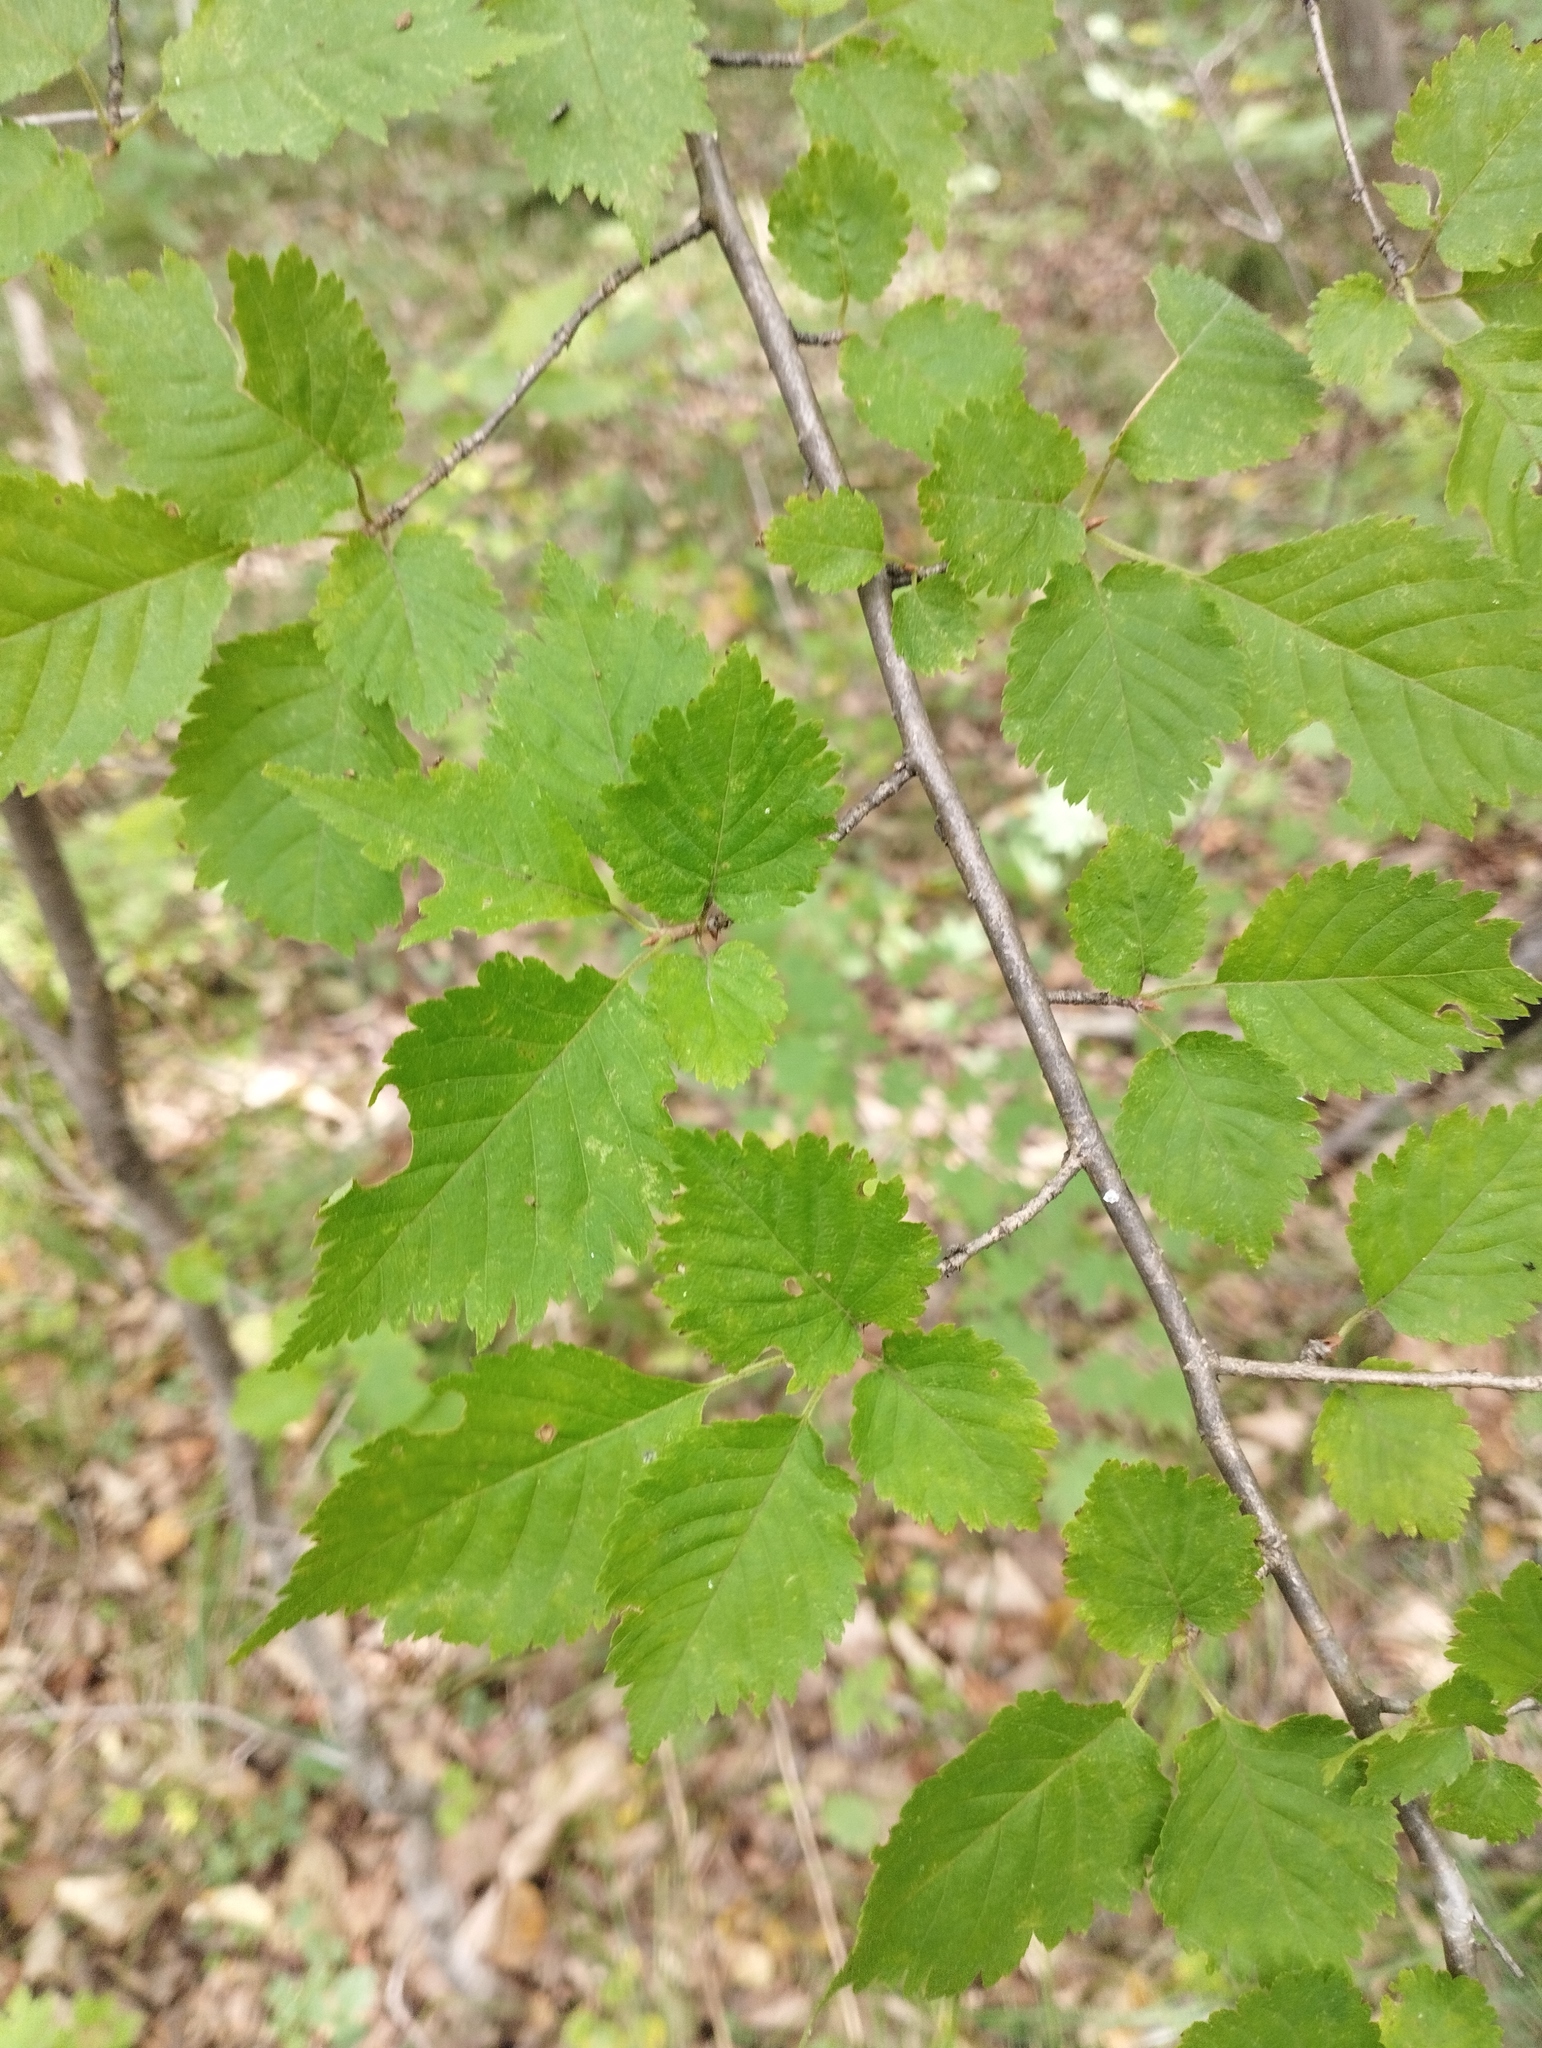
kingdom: Plantae
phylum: Tracheophyta
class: Magnoliopsida
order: Rosales
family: Rosaceae
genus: Prunus
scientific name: Prunus maximowiczii
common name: Korean cherry
